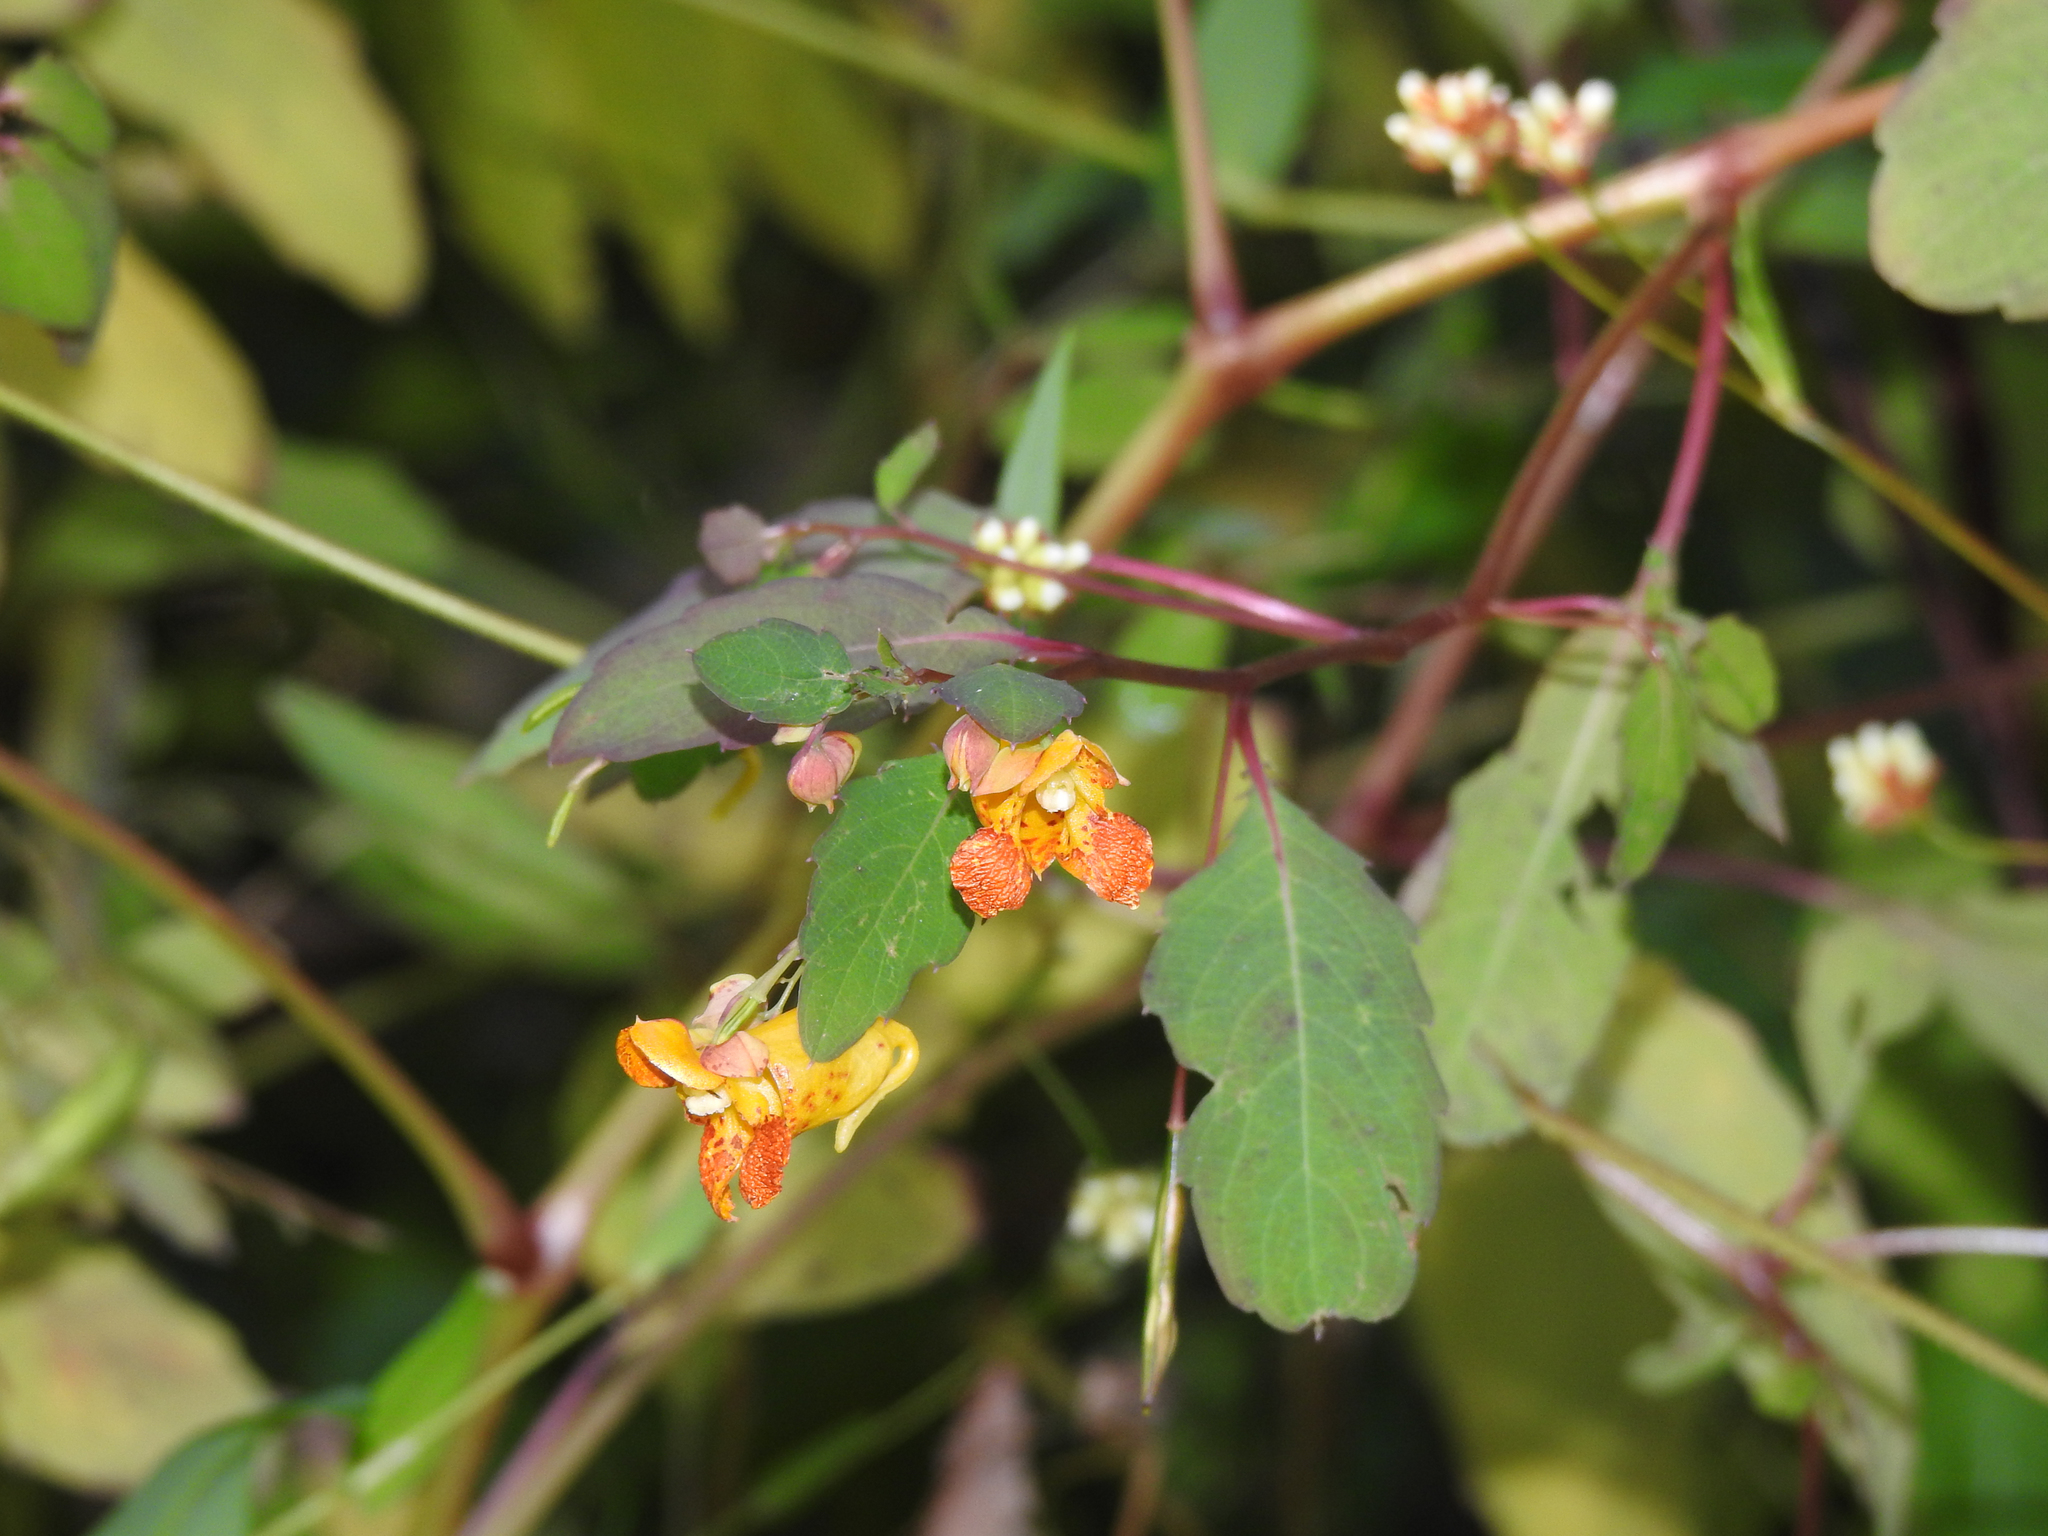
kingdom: Plantae
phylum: Tracheophyta
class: Magnoliopsida
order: Ericales
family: Balsaminaceae
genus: Impatiens
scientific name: Impatiens capensis
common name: Orange balsam
